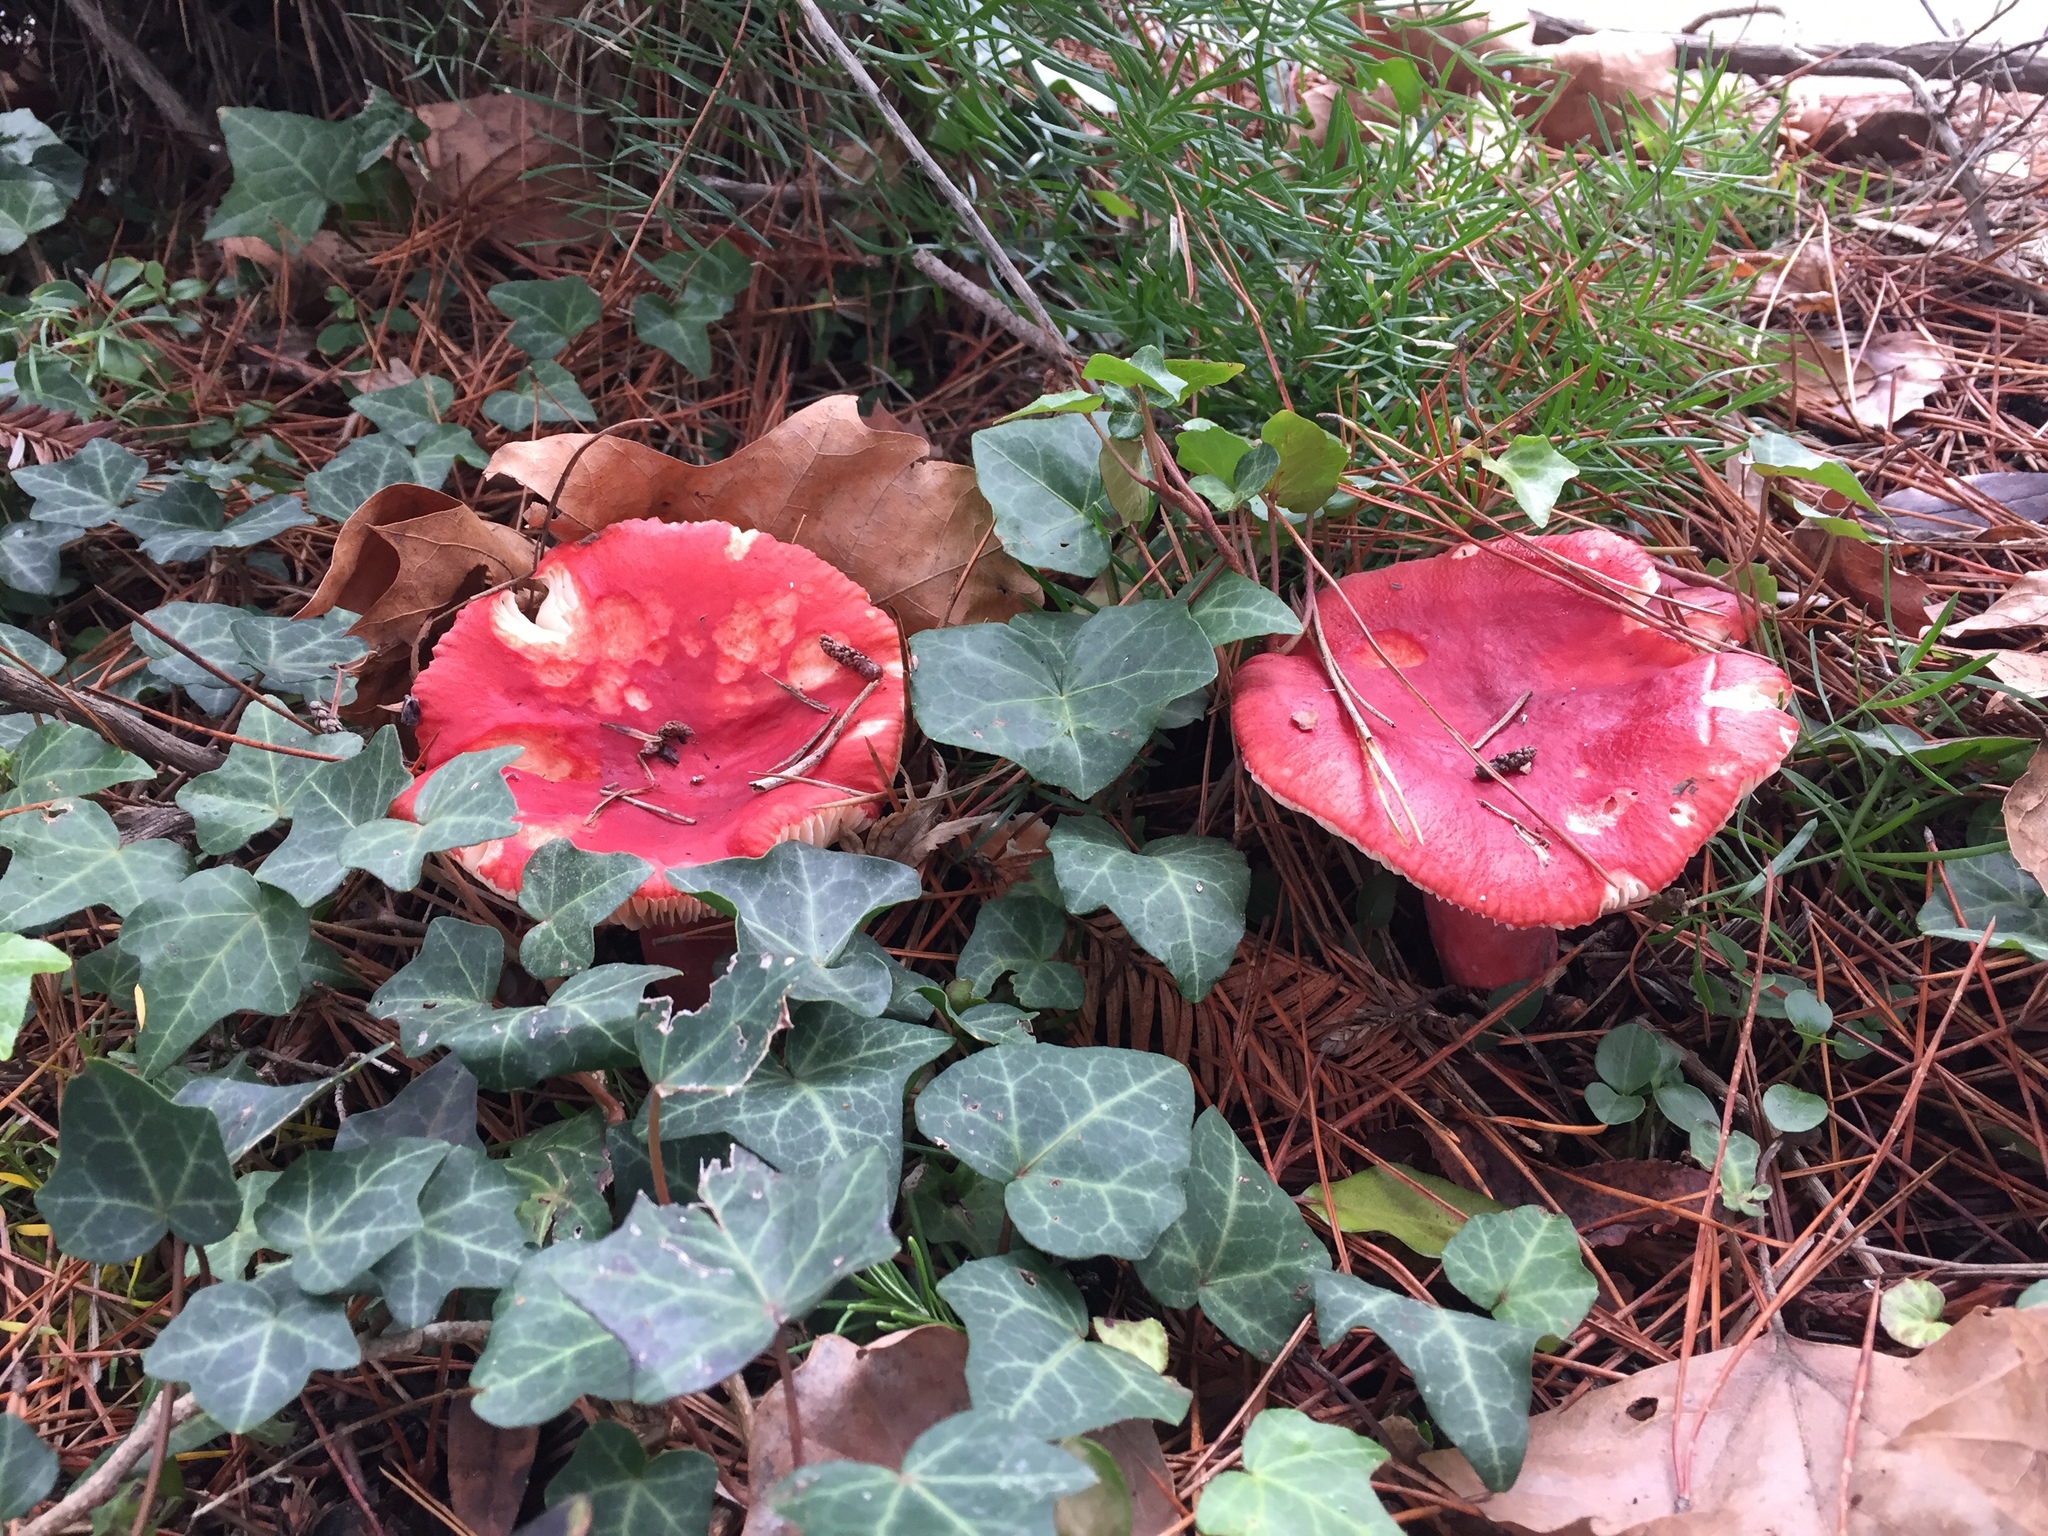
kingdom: Fungi
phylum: Basidiomycota
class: Agaricomycetes
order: Russulales
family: Russulaceae
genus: Russula
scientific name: Russula rhodocephala
